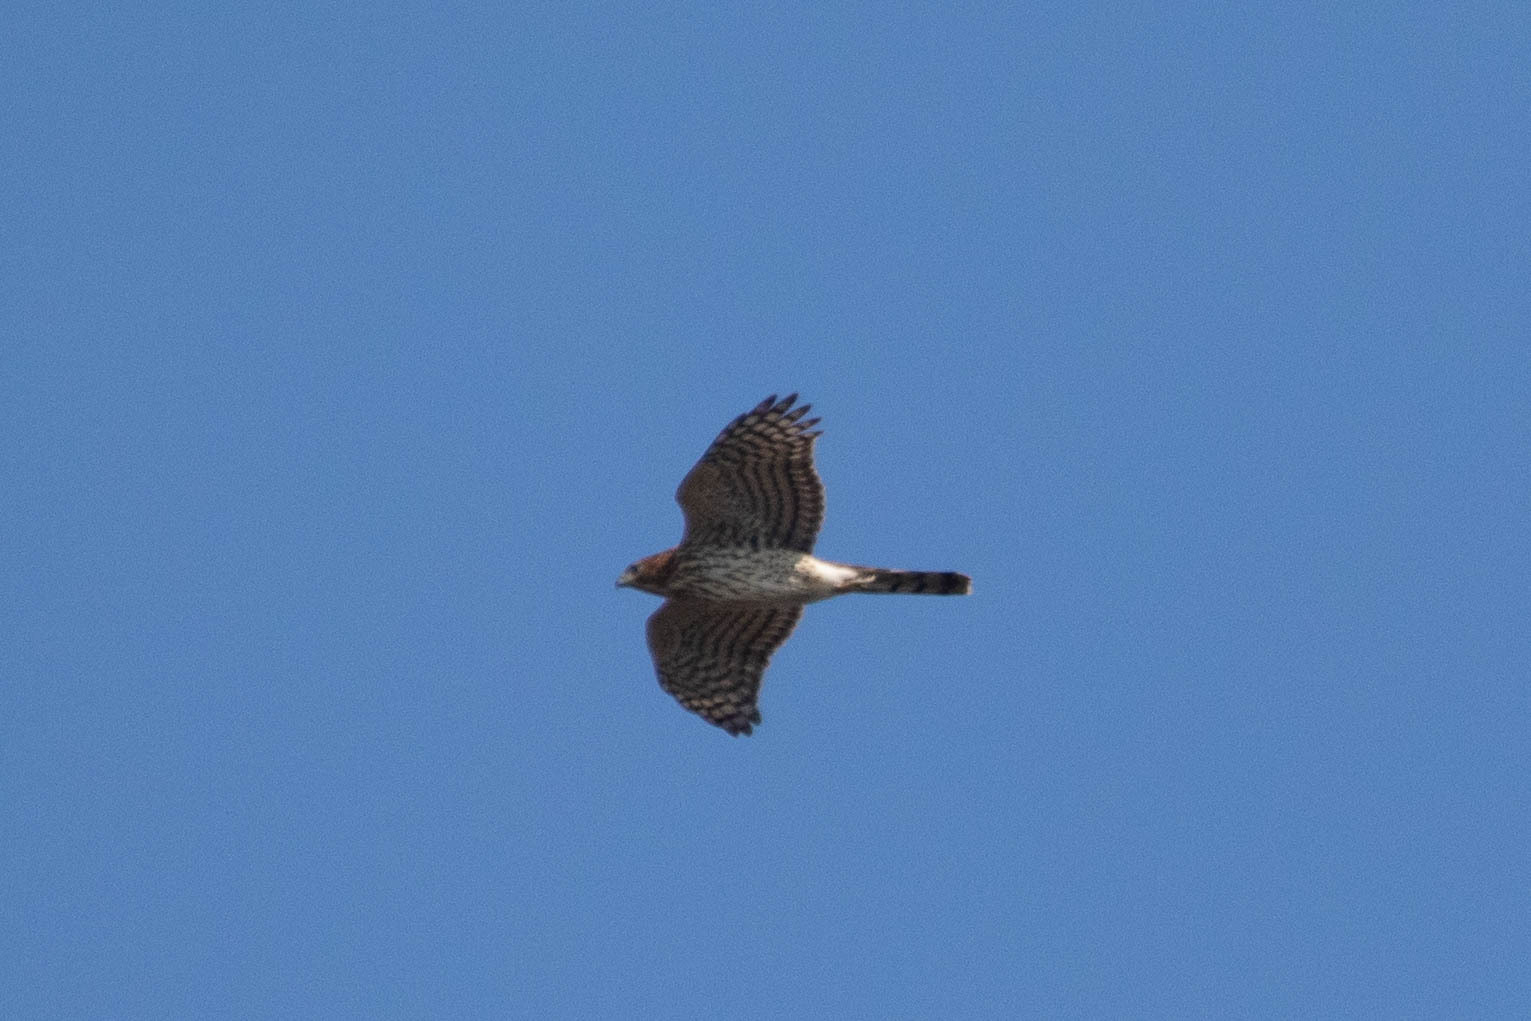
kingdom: Animalia
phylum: Chordata
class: Aves
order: Accipitriformes
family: Accipitridae
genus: Accipiter
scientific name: Accipiter cooperii
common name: Cooper's hawk
